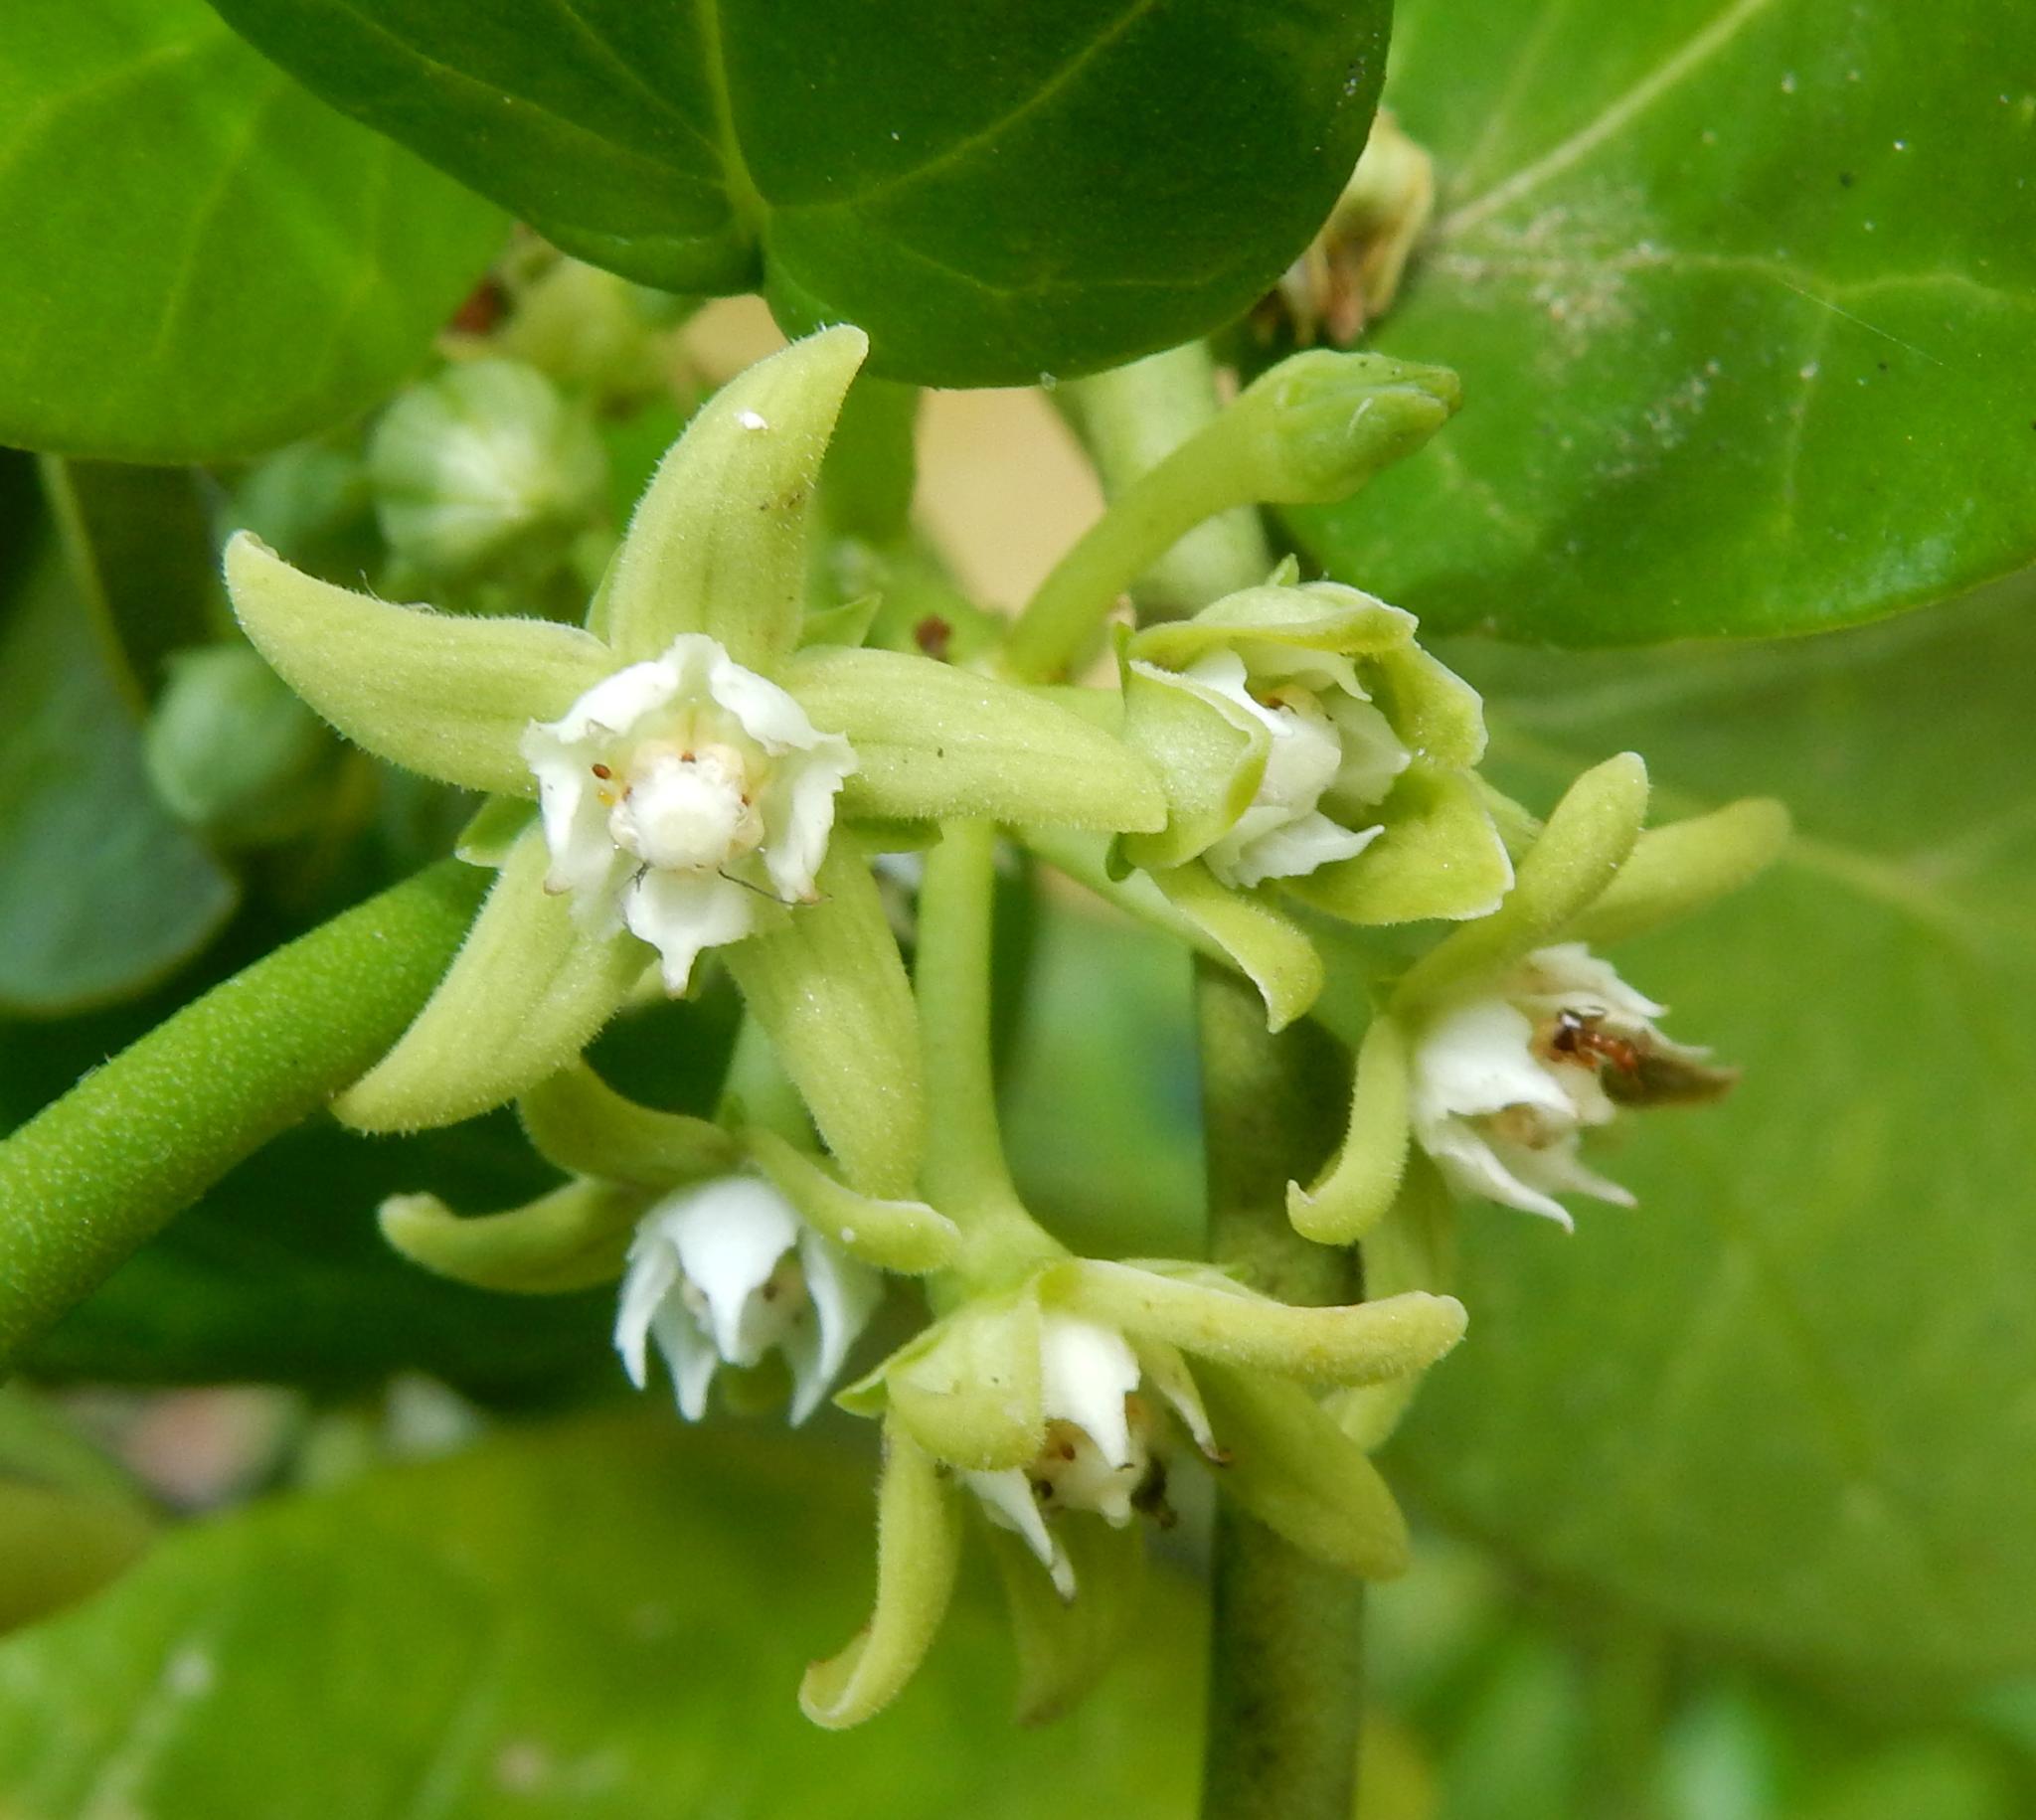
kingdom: Plantae
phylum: Tracheophyta
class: Magnoliopsida
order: Gentianales
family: Apocynaceae
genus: Cynanchum
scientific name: Cynanchum obtusifolium
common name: Monkey-rope
